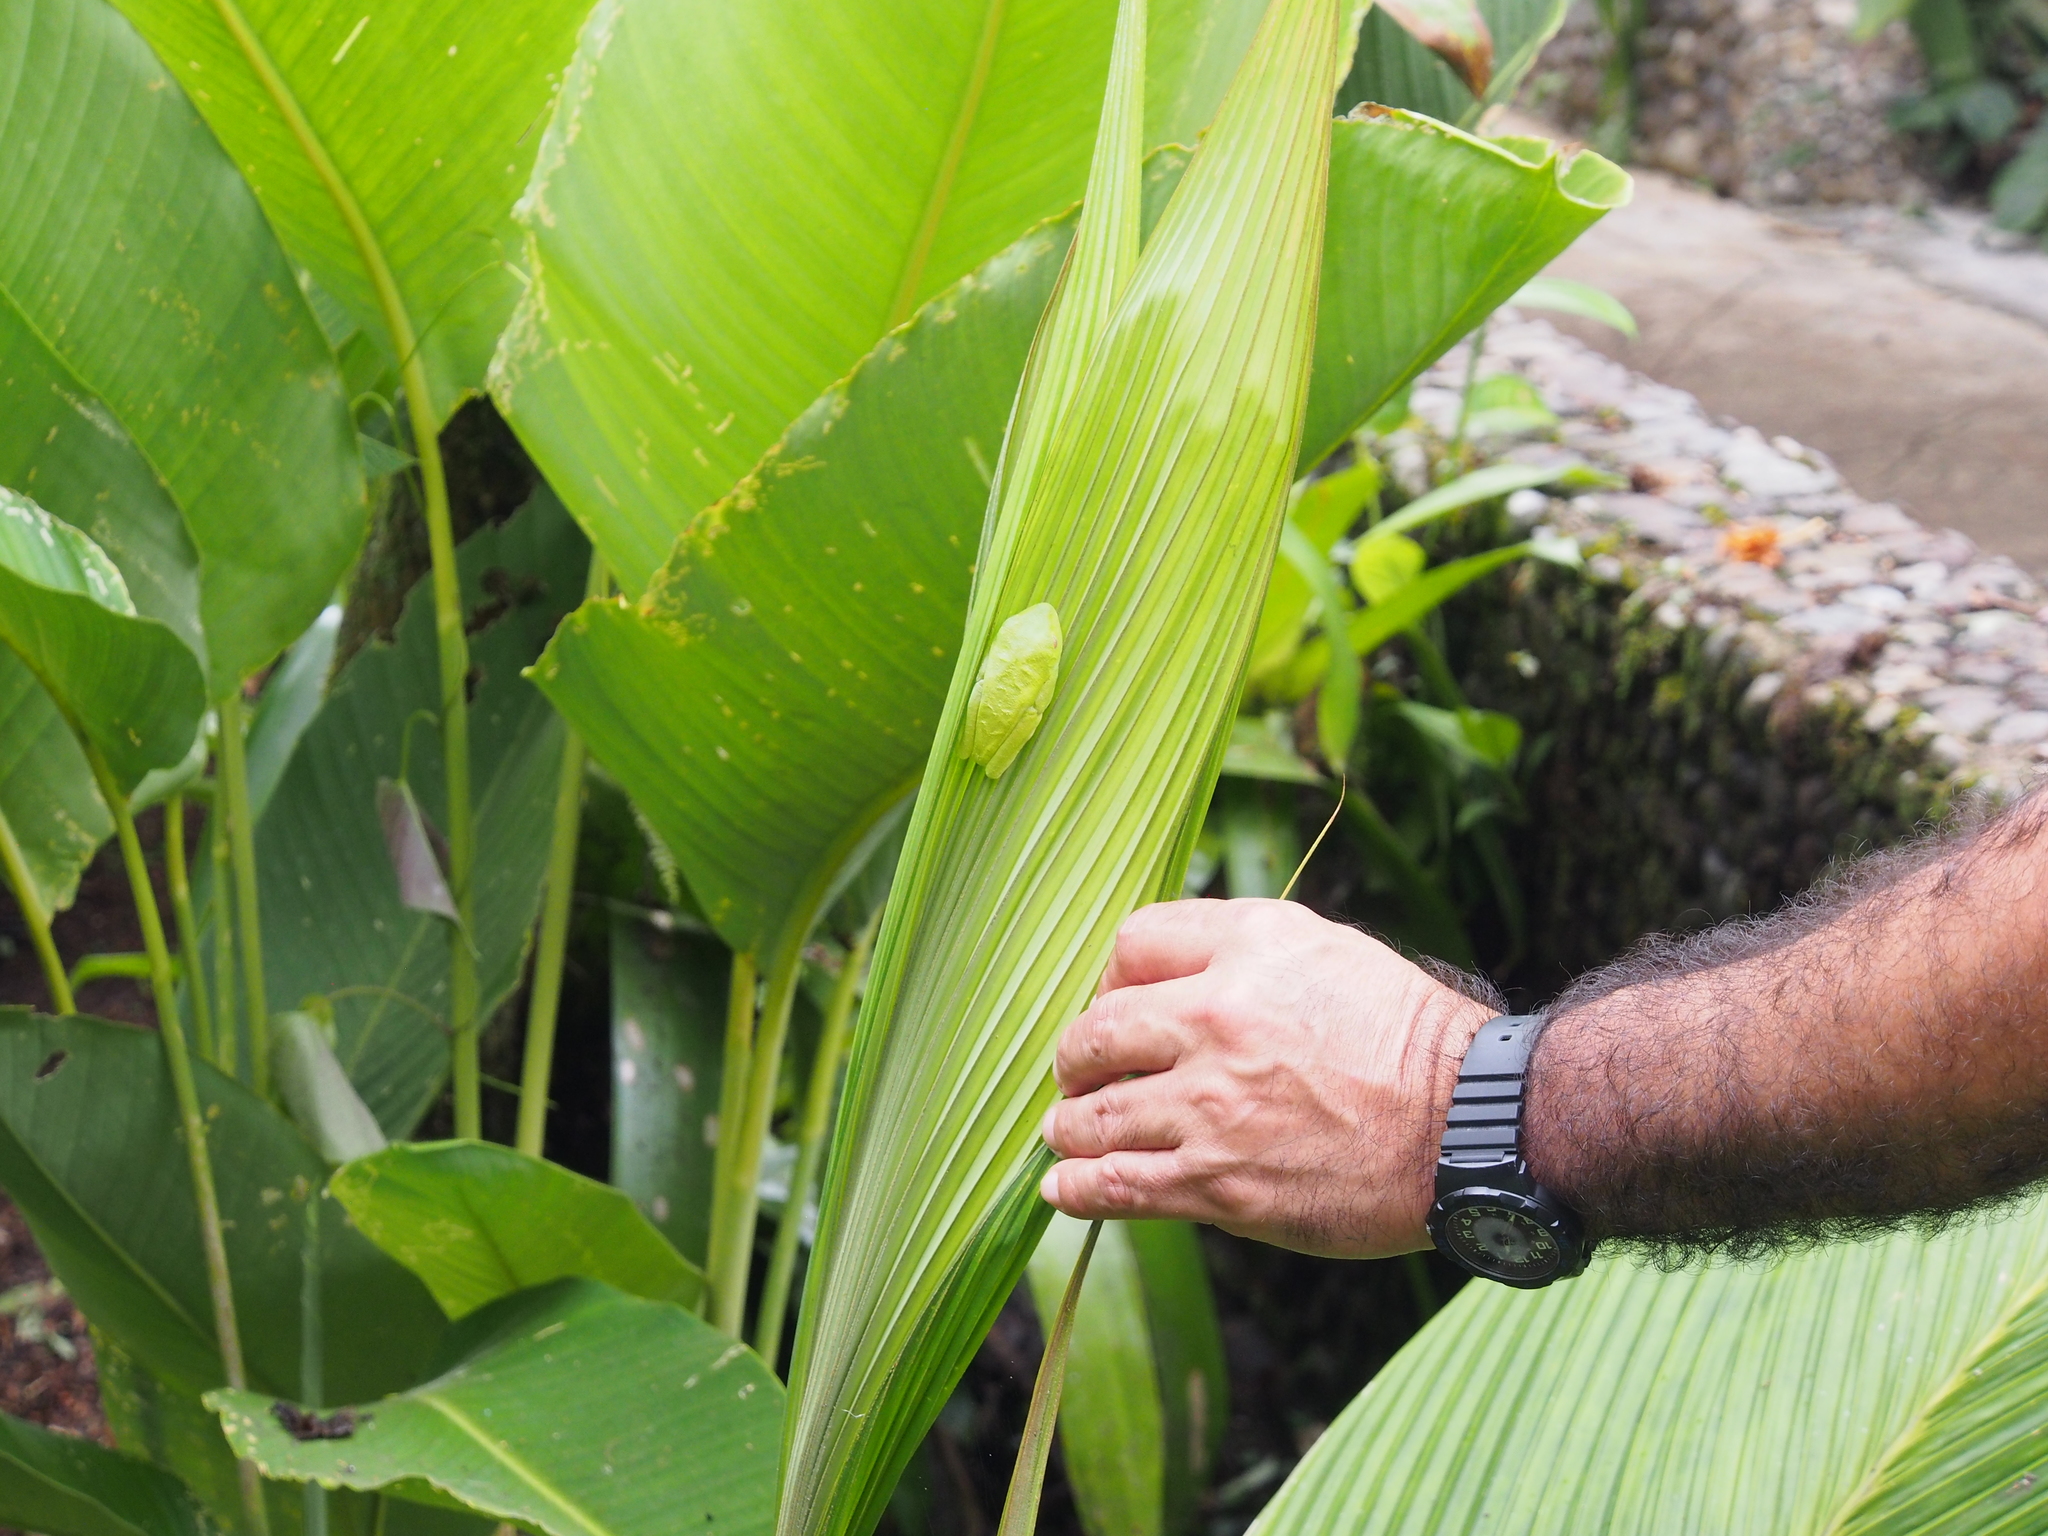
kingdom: Animalia
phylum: Chordata
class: Amphibia
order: Anura
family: Phyllomedusidae
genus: Agalychnis
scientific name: Agalychnis callidryas
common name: Red-eyed treefrog
